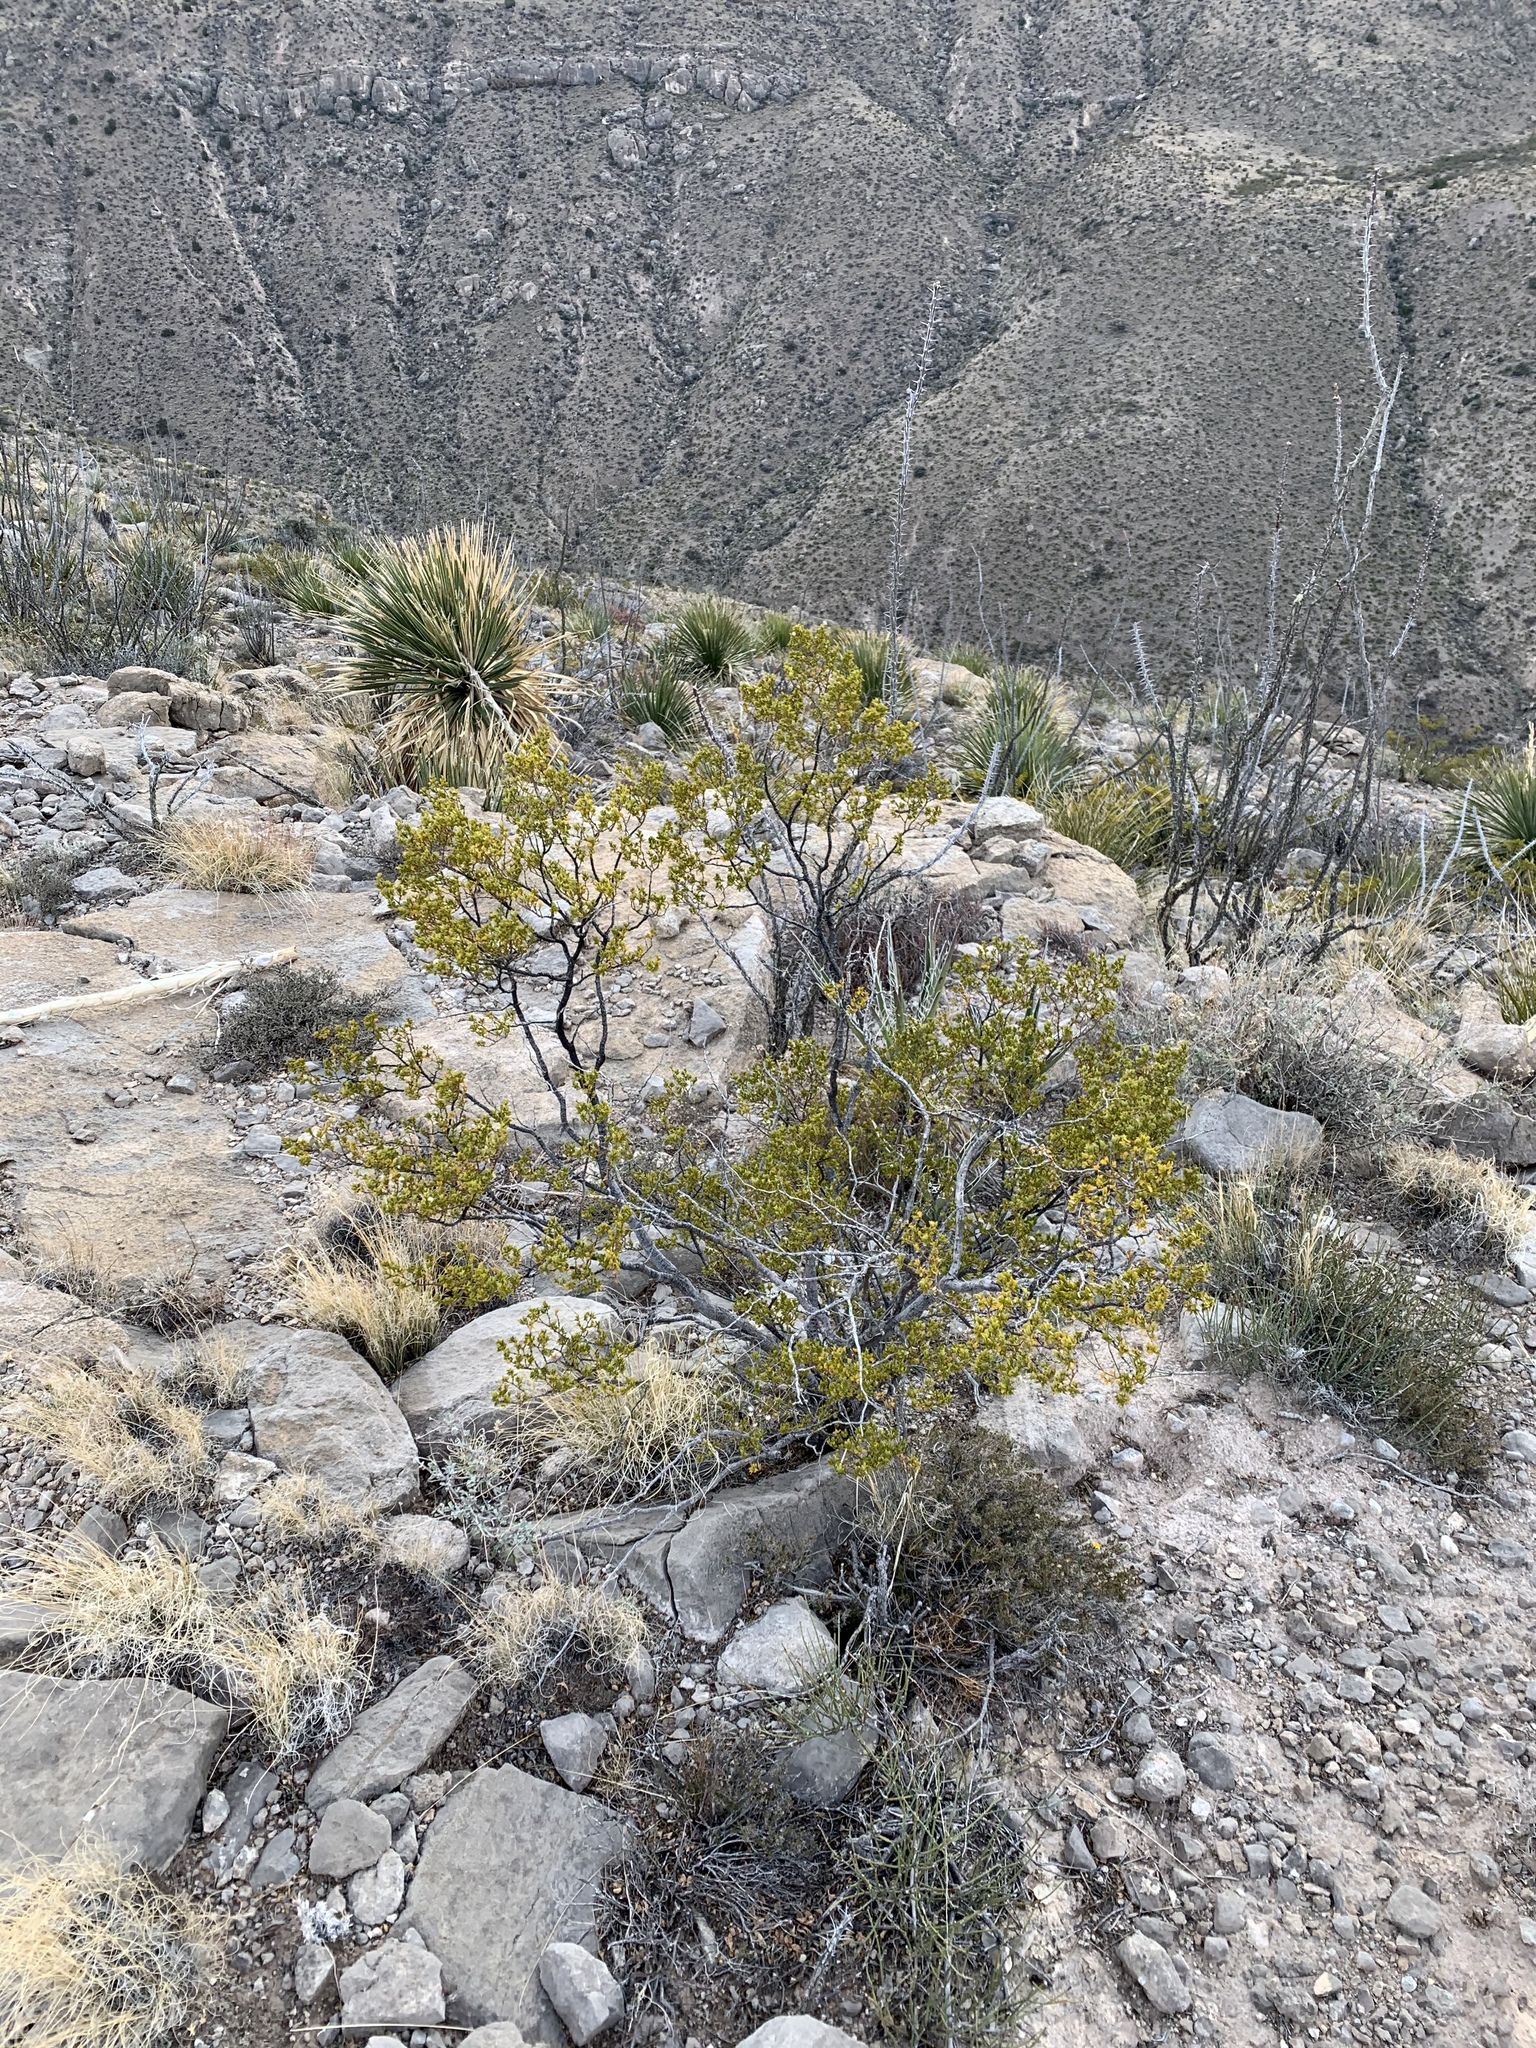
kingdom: Plantae
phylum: Tracheophyta
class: Magnoliopsida
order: Zygophyllales
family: Zygophyllaceae
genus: Larrea
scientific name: Larrea tridentata
